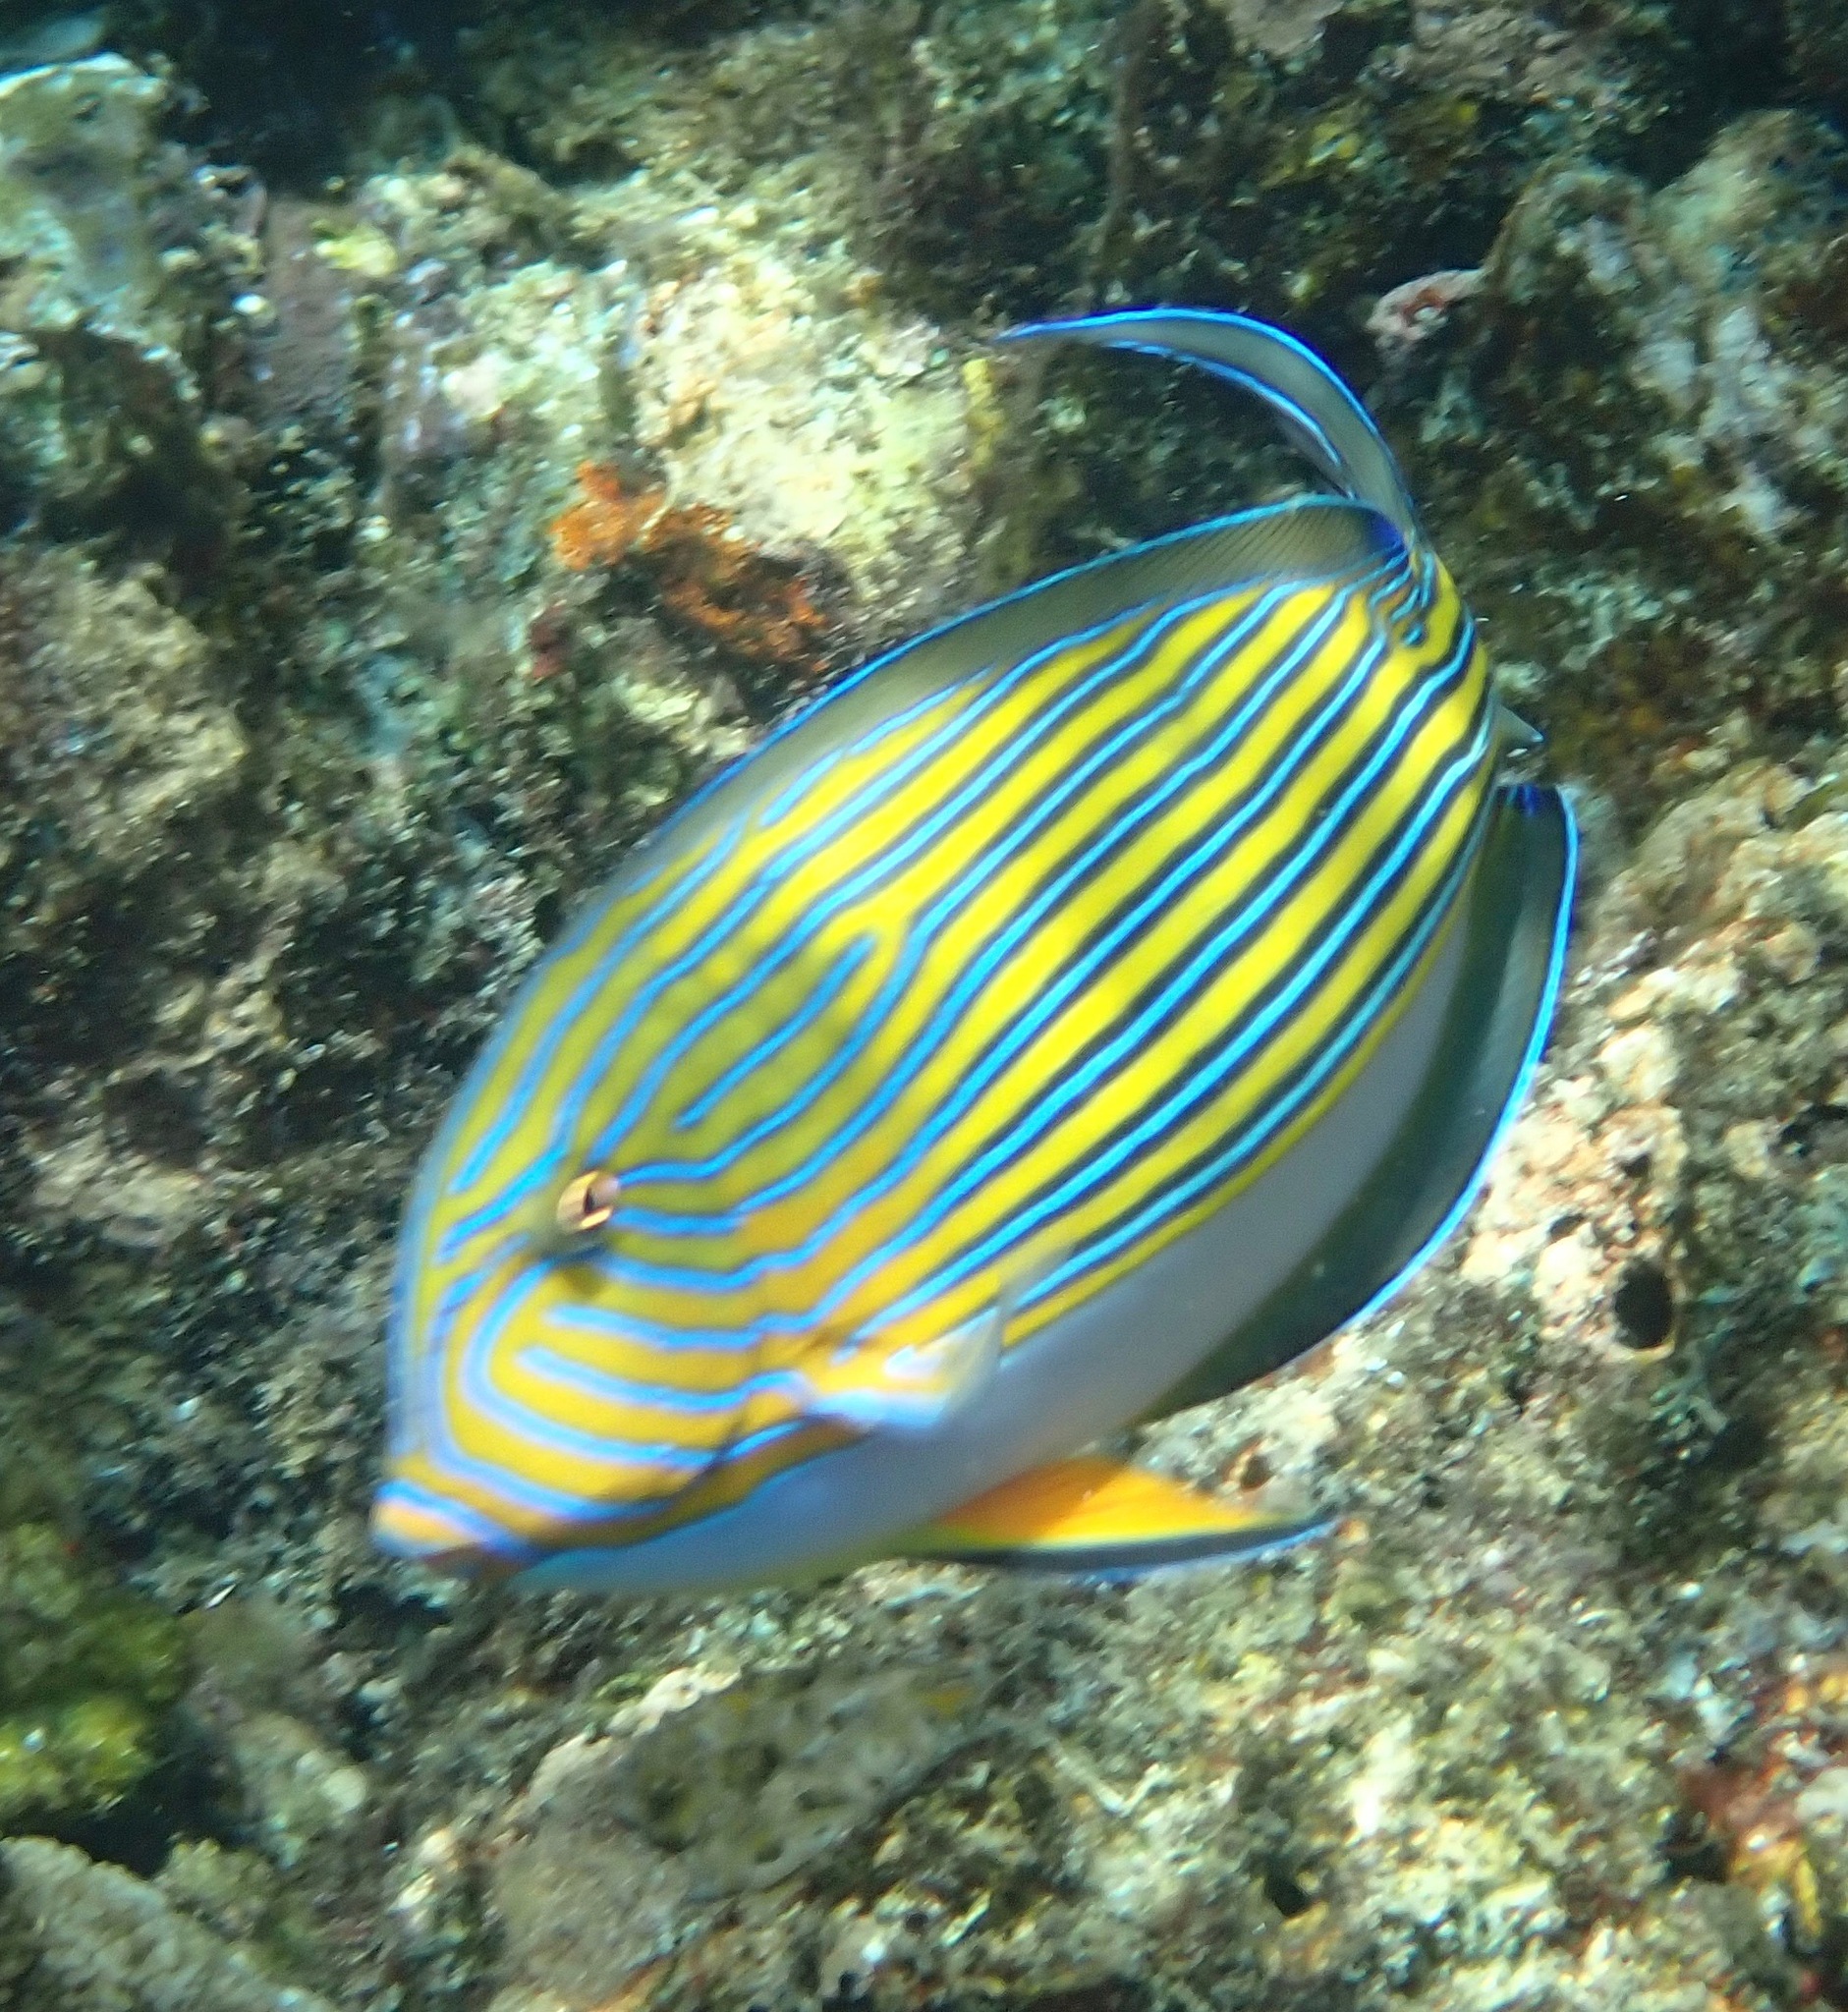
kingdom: Animalia
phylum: Chordata
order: Perciformes
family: Acanthuridae
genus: Acanthurus
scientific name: Acanthurus lineatus
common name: Striped surgeonfish
